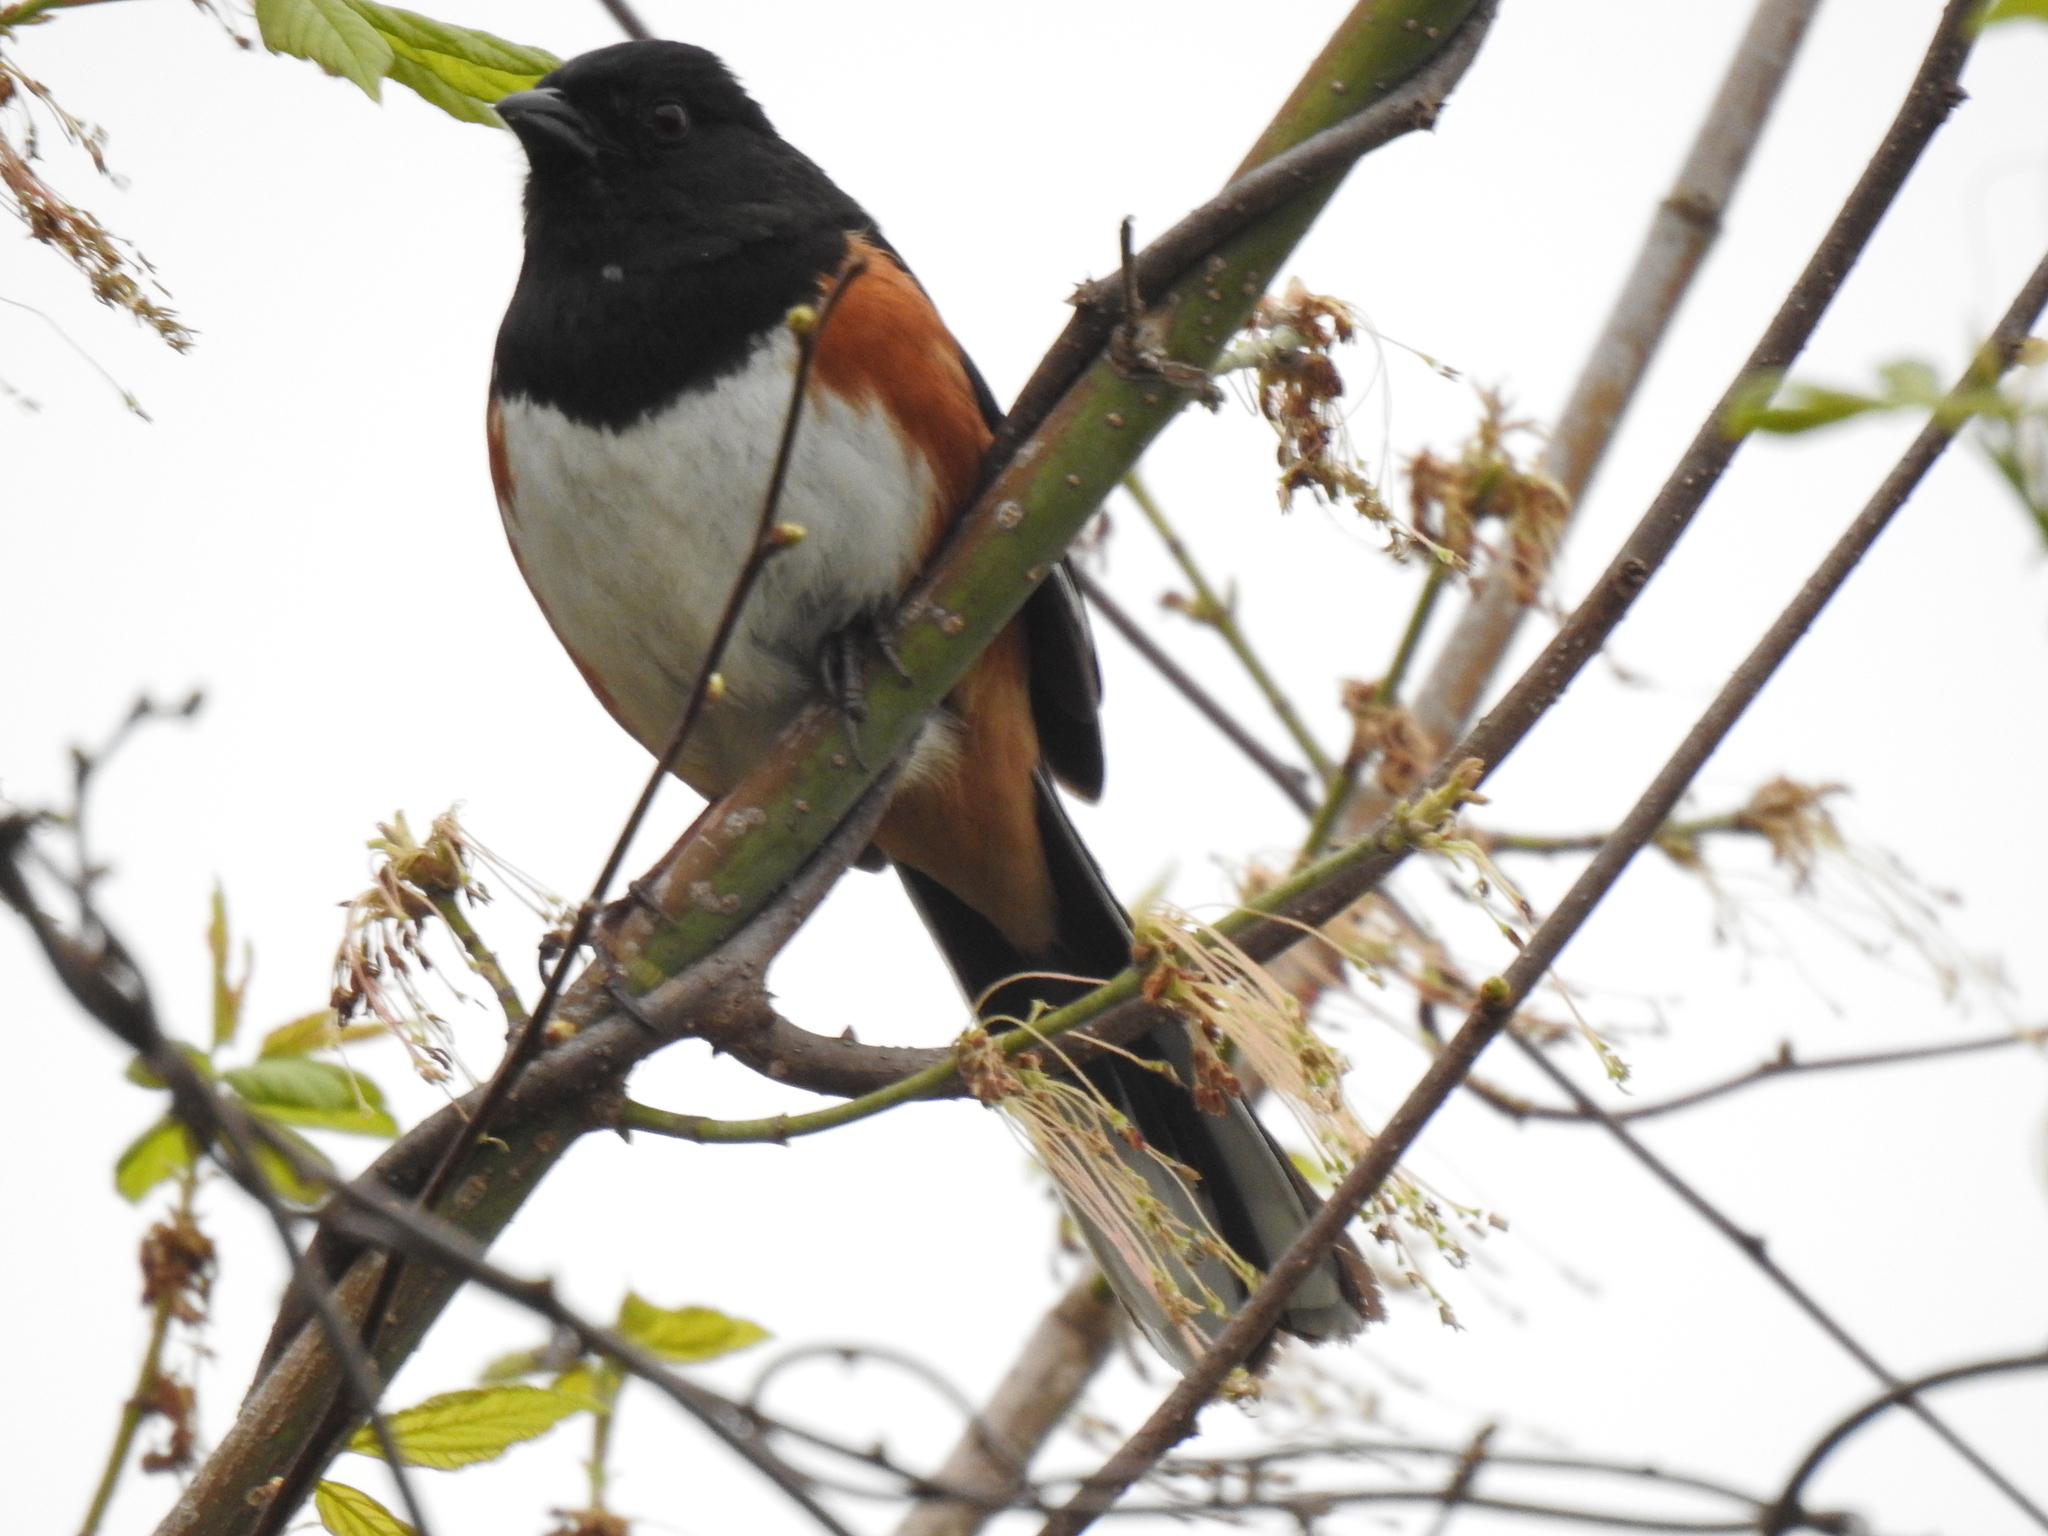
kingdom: Animalia
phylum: Chordata
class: Aves
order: Passeriformes
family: Passerellidae
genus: Pipilo
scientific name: Pipilo erythrophthalmus
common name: Eastern towhee
